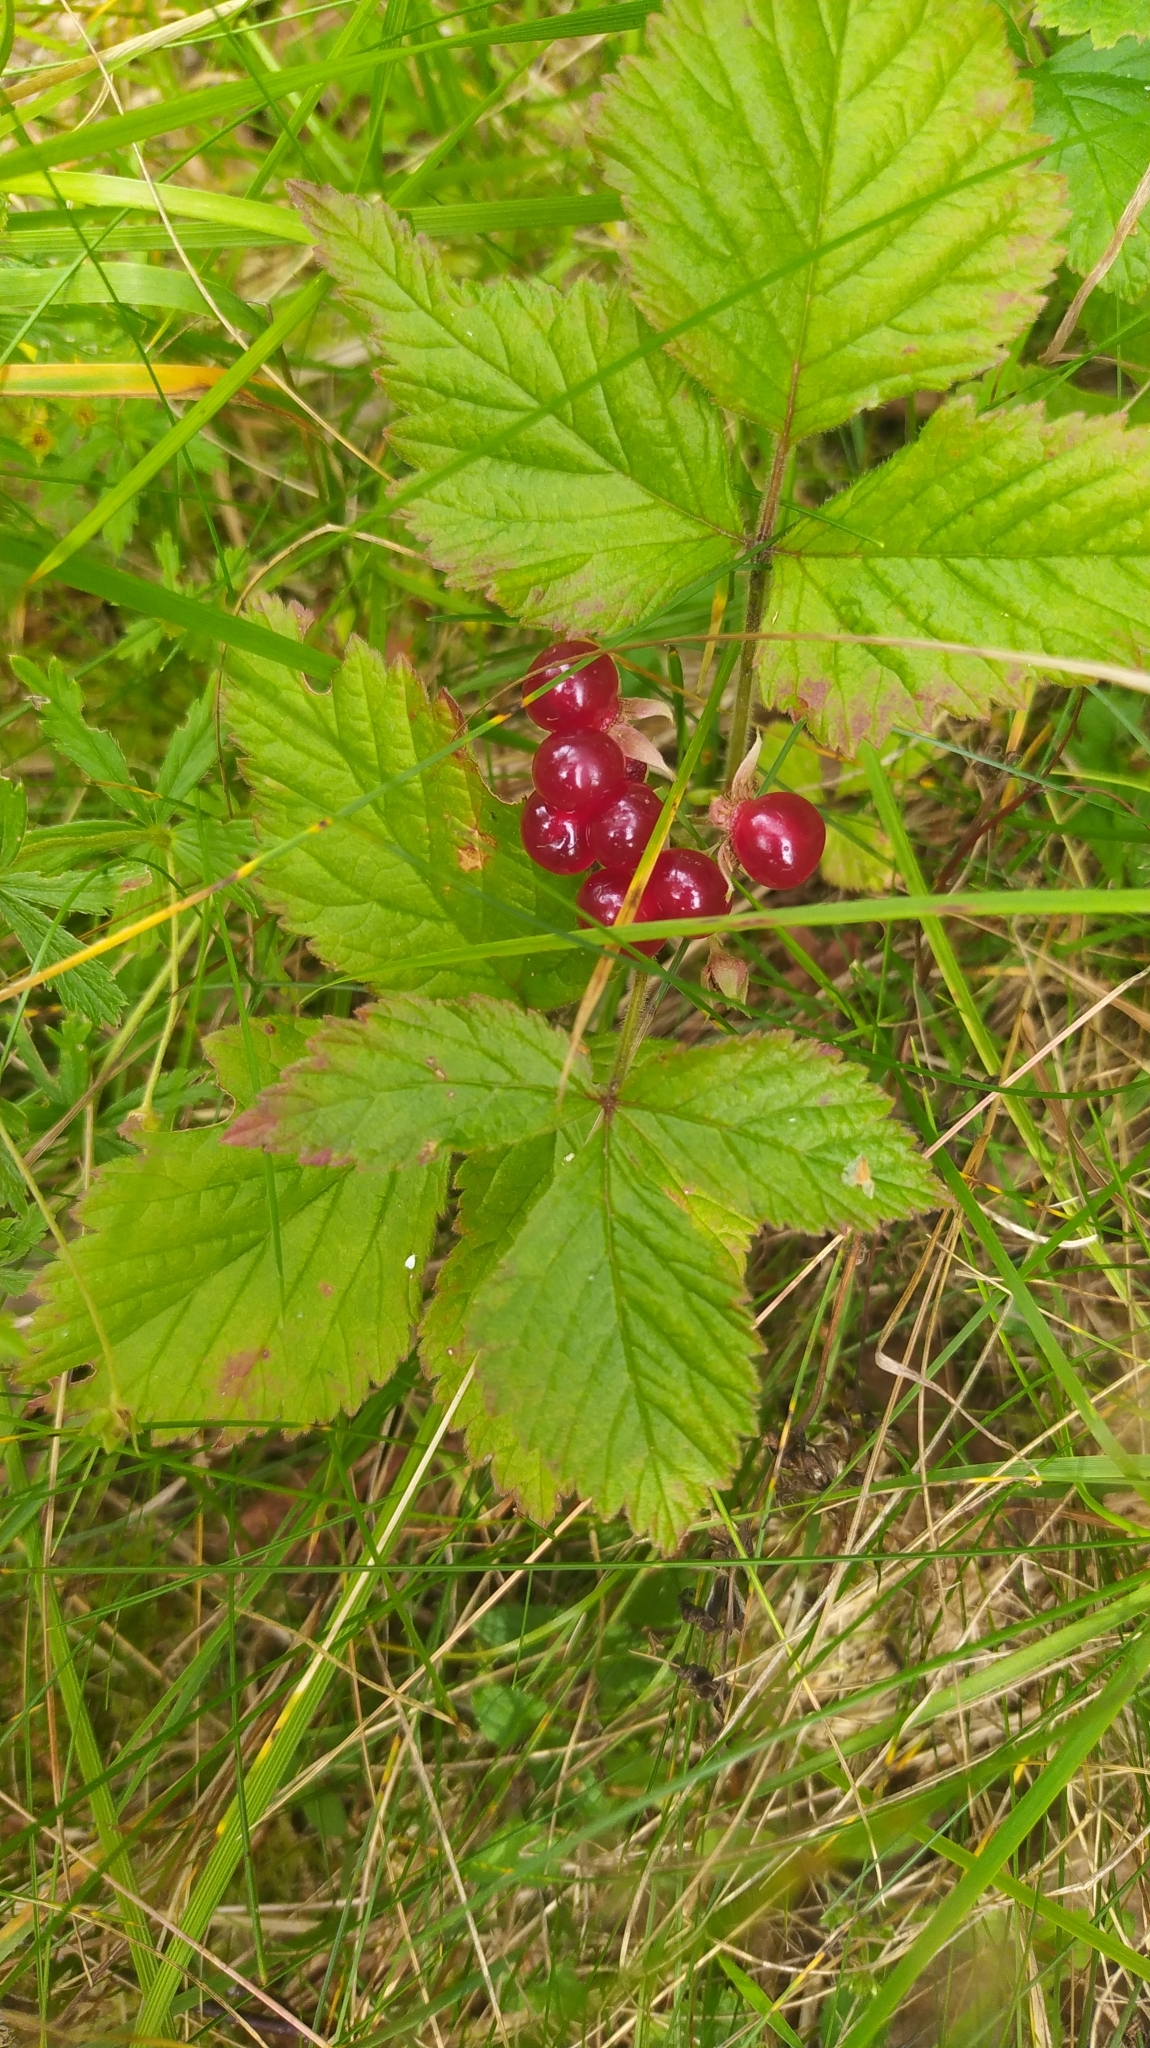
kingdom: Plantae
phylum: Tracheophyta
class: Magnoliopsida
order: Rosales
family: Rosaceae
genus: Rubus
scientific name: Rubus saxatilis
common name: Stone bramble
